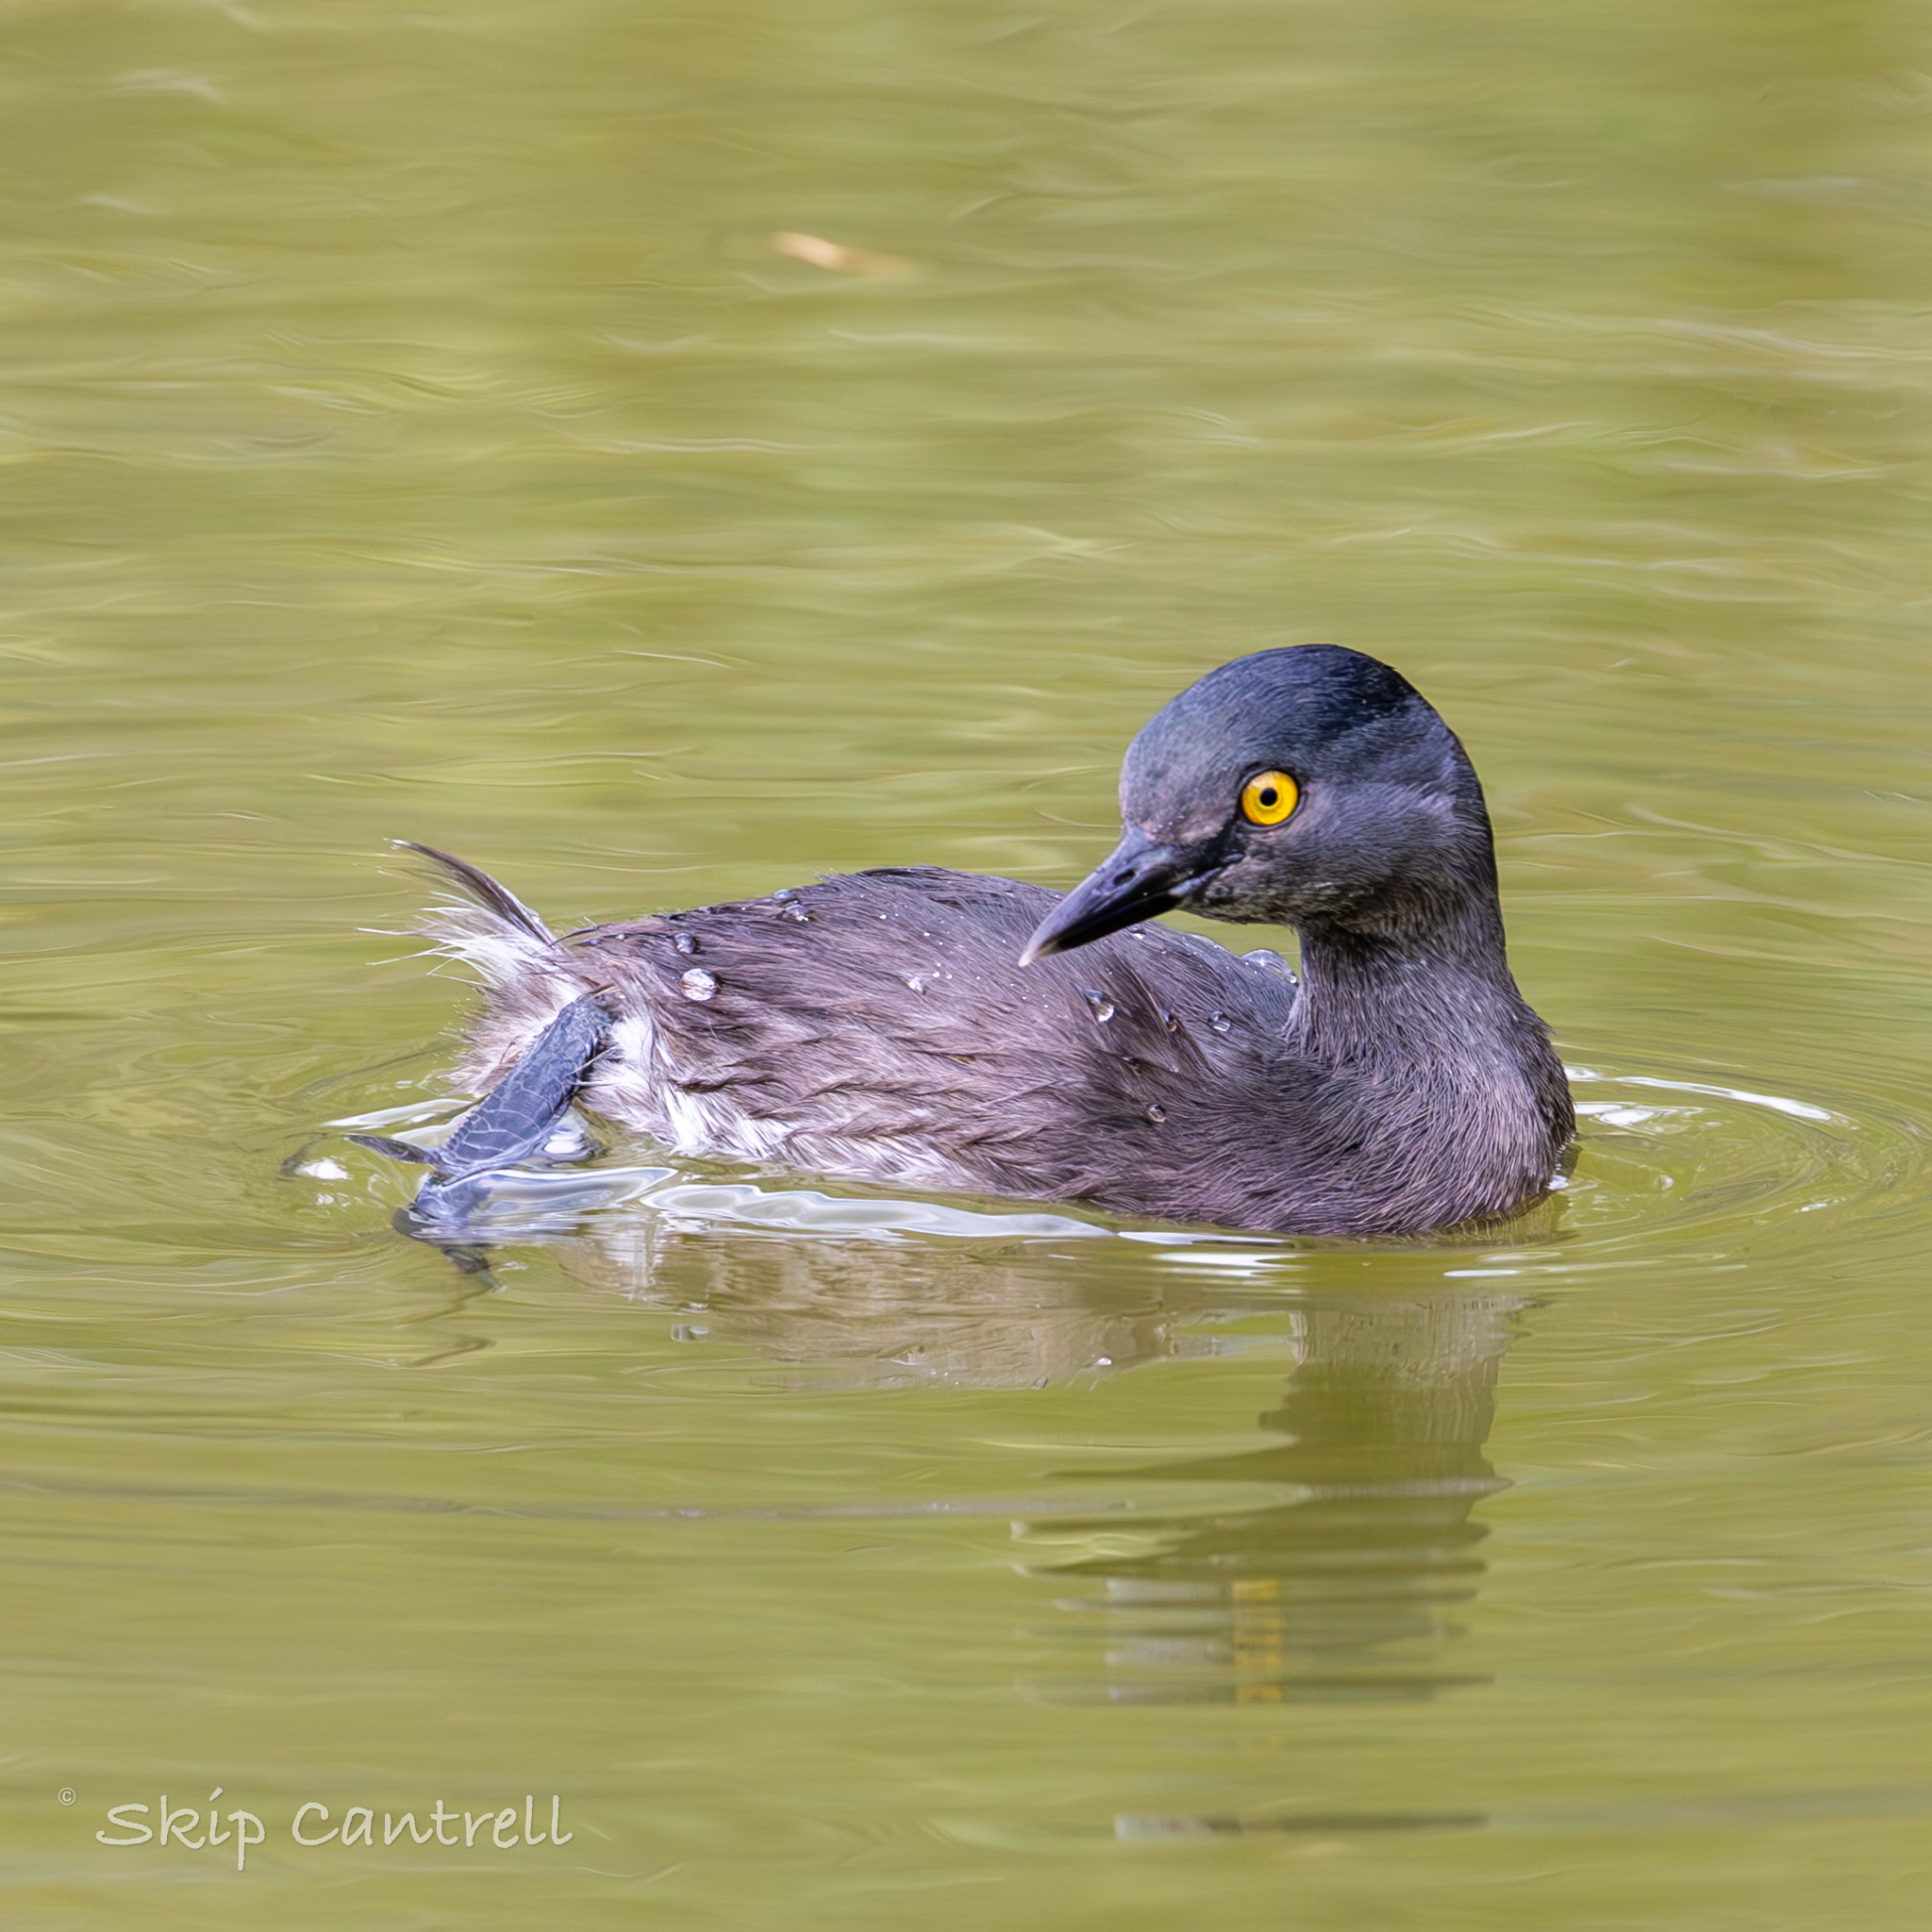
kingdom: Animalia
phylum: Chordata
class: Aves
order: Podicipediformes
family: Podicipedidae
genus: Tachybaptus
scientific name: Tachybaptus dominicus
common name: Least grebe
